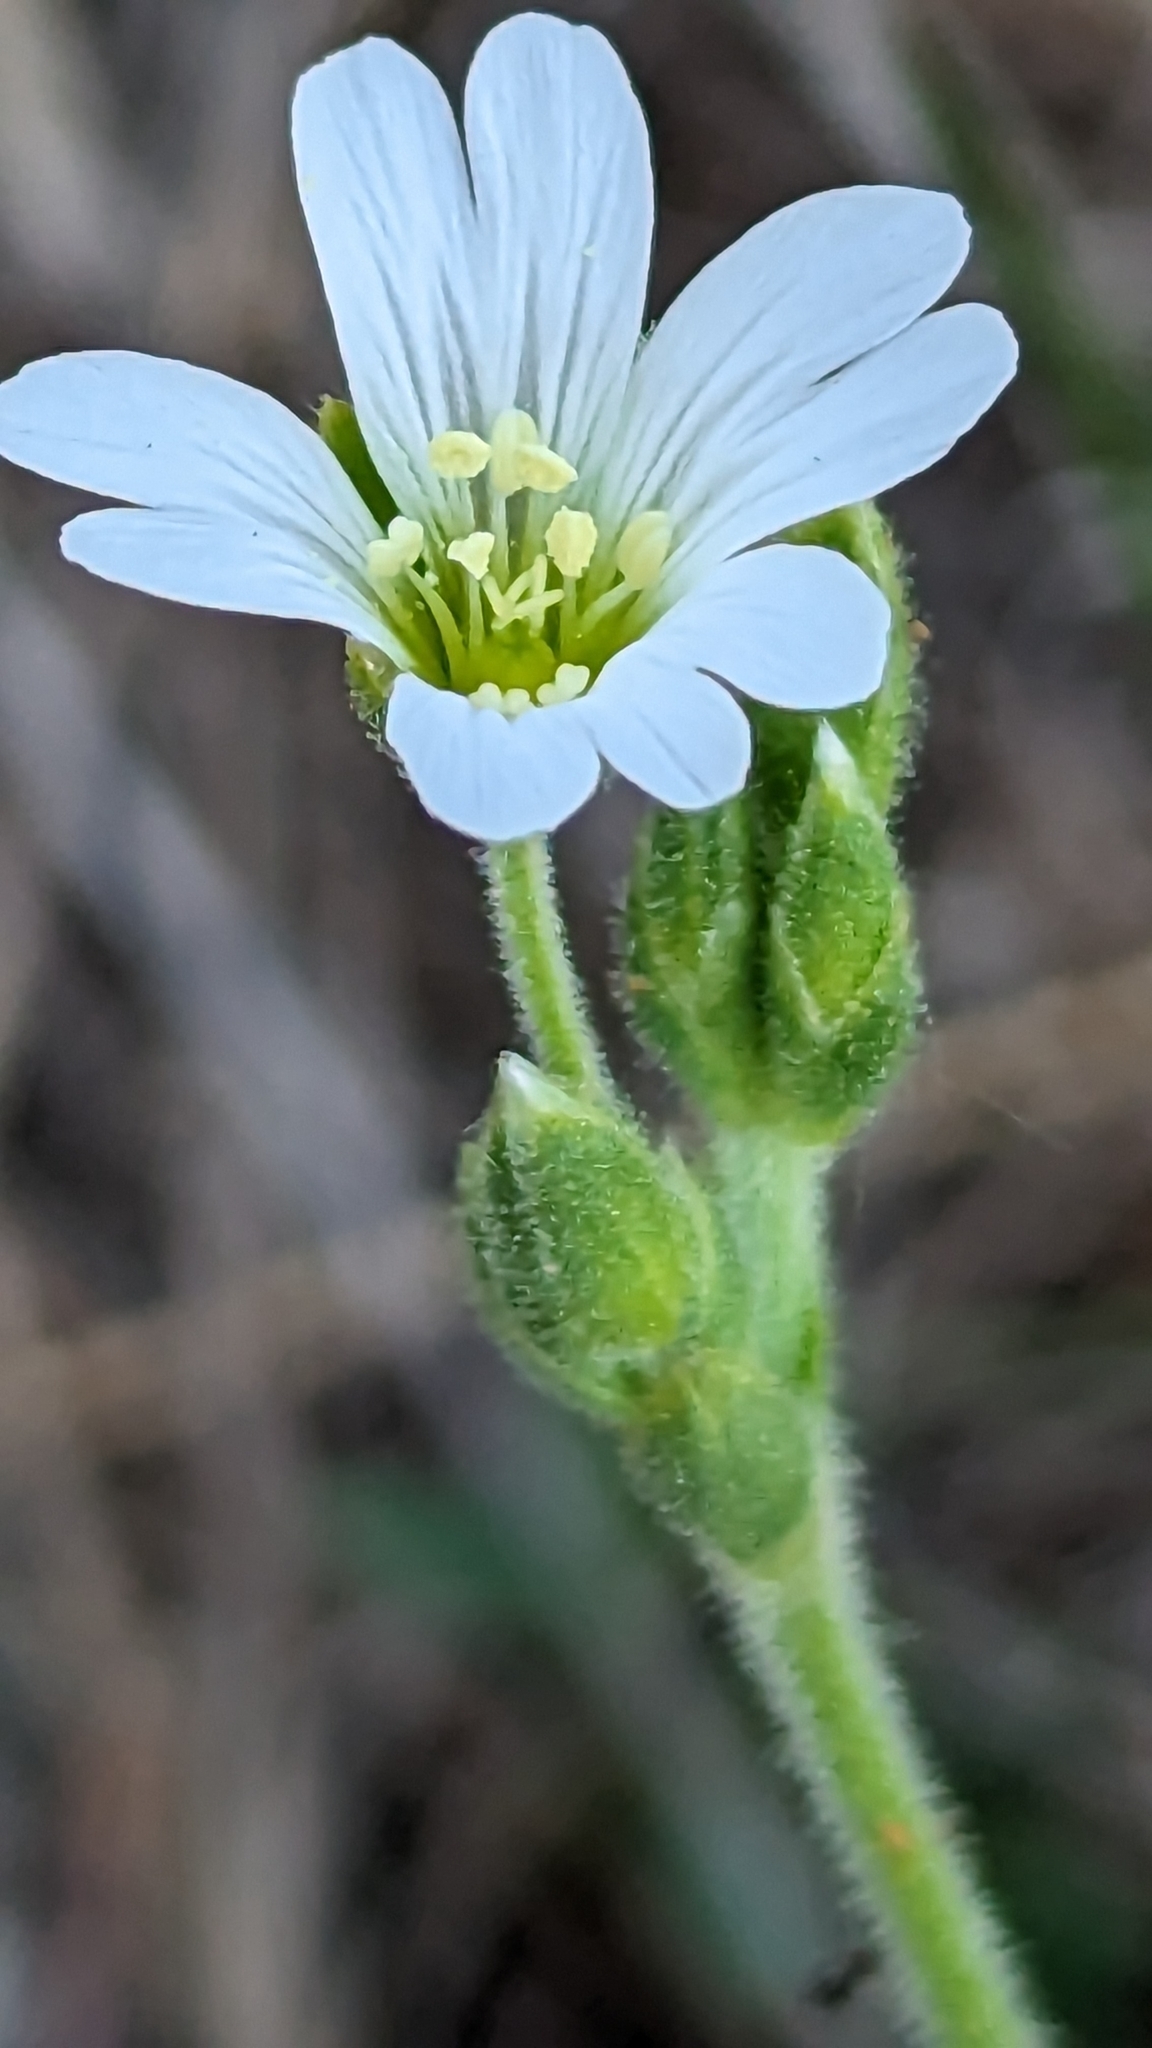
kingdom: Plantae
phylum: Tracheophyta
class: Magnoliopsida
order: Caryophyllales
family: Caryophyllaceae
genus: Cerastium
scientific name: Cerastium arvense
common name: Field mouse-ear
